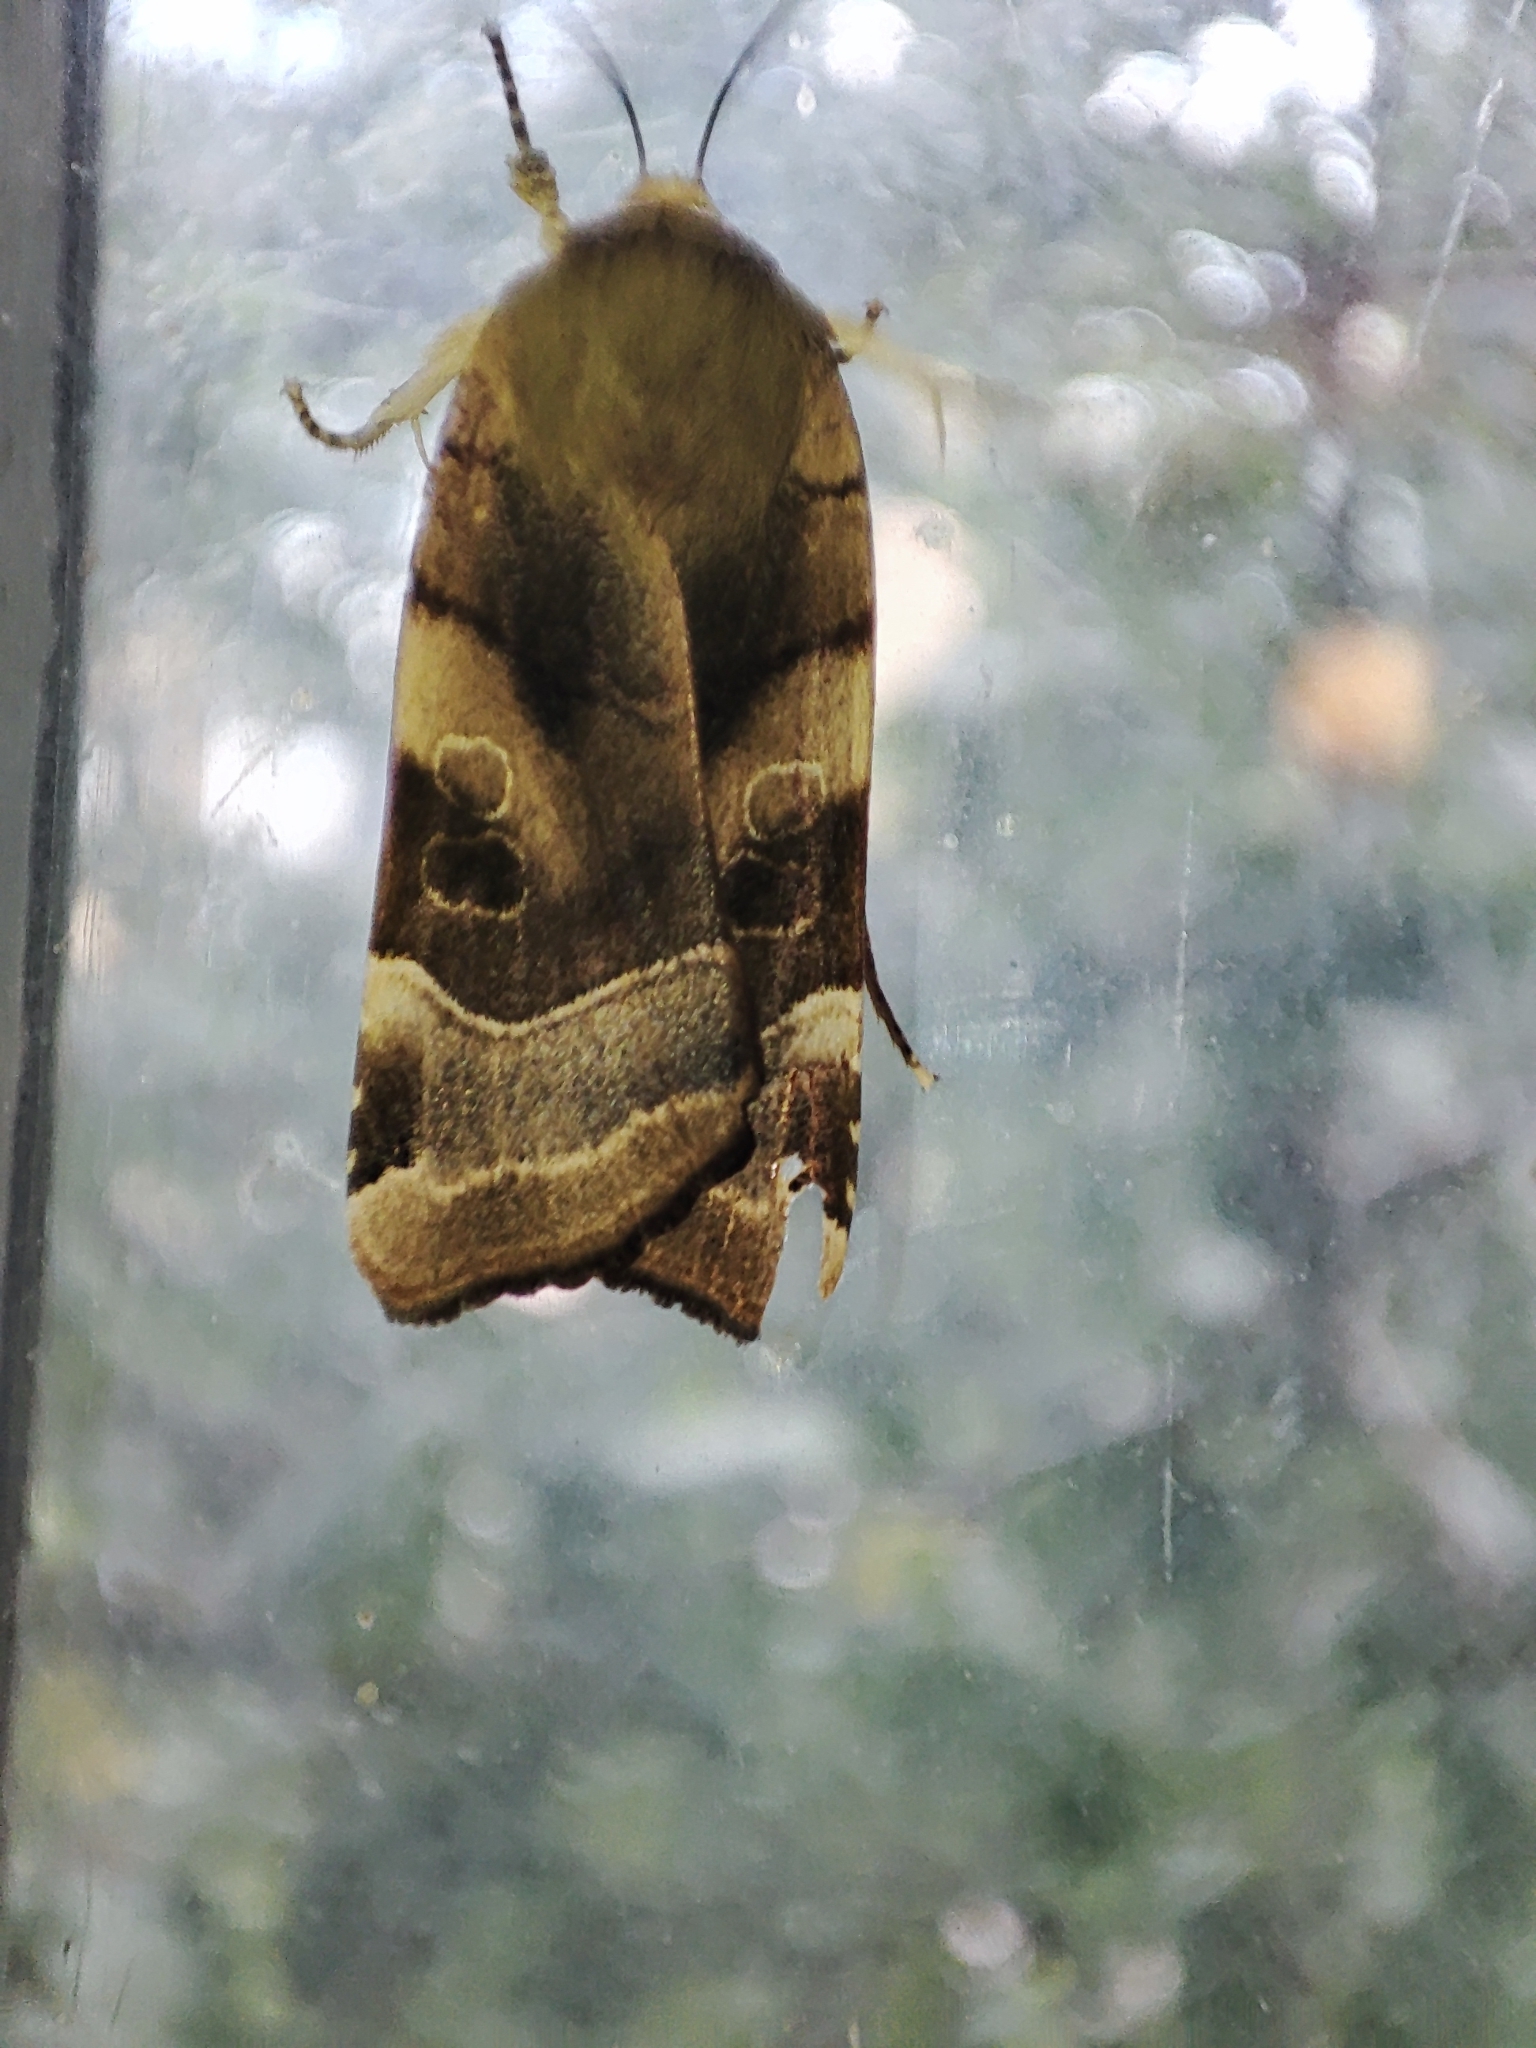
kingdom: Animalia
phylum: Arthropoda
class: Insecta
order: Lepidoptera
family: Noctuidae
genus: Noctua
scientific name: Noctua fimbriata
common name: Broad-bordered yellow underwing
